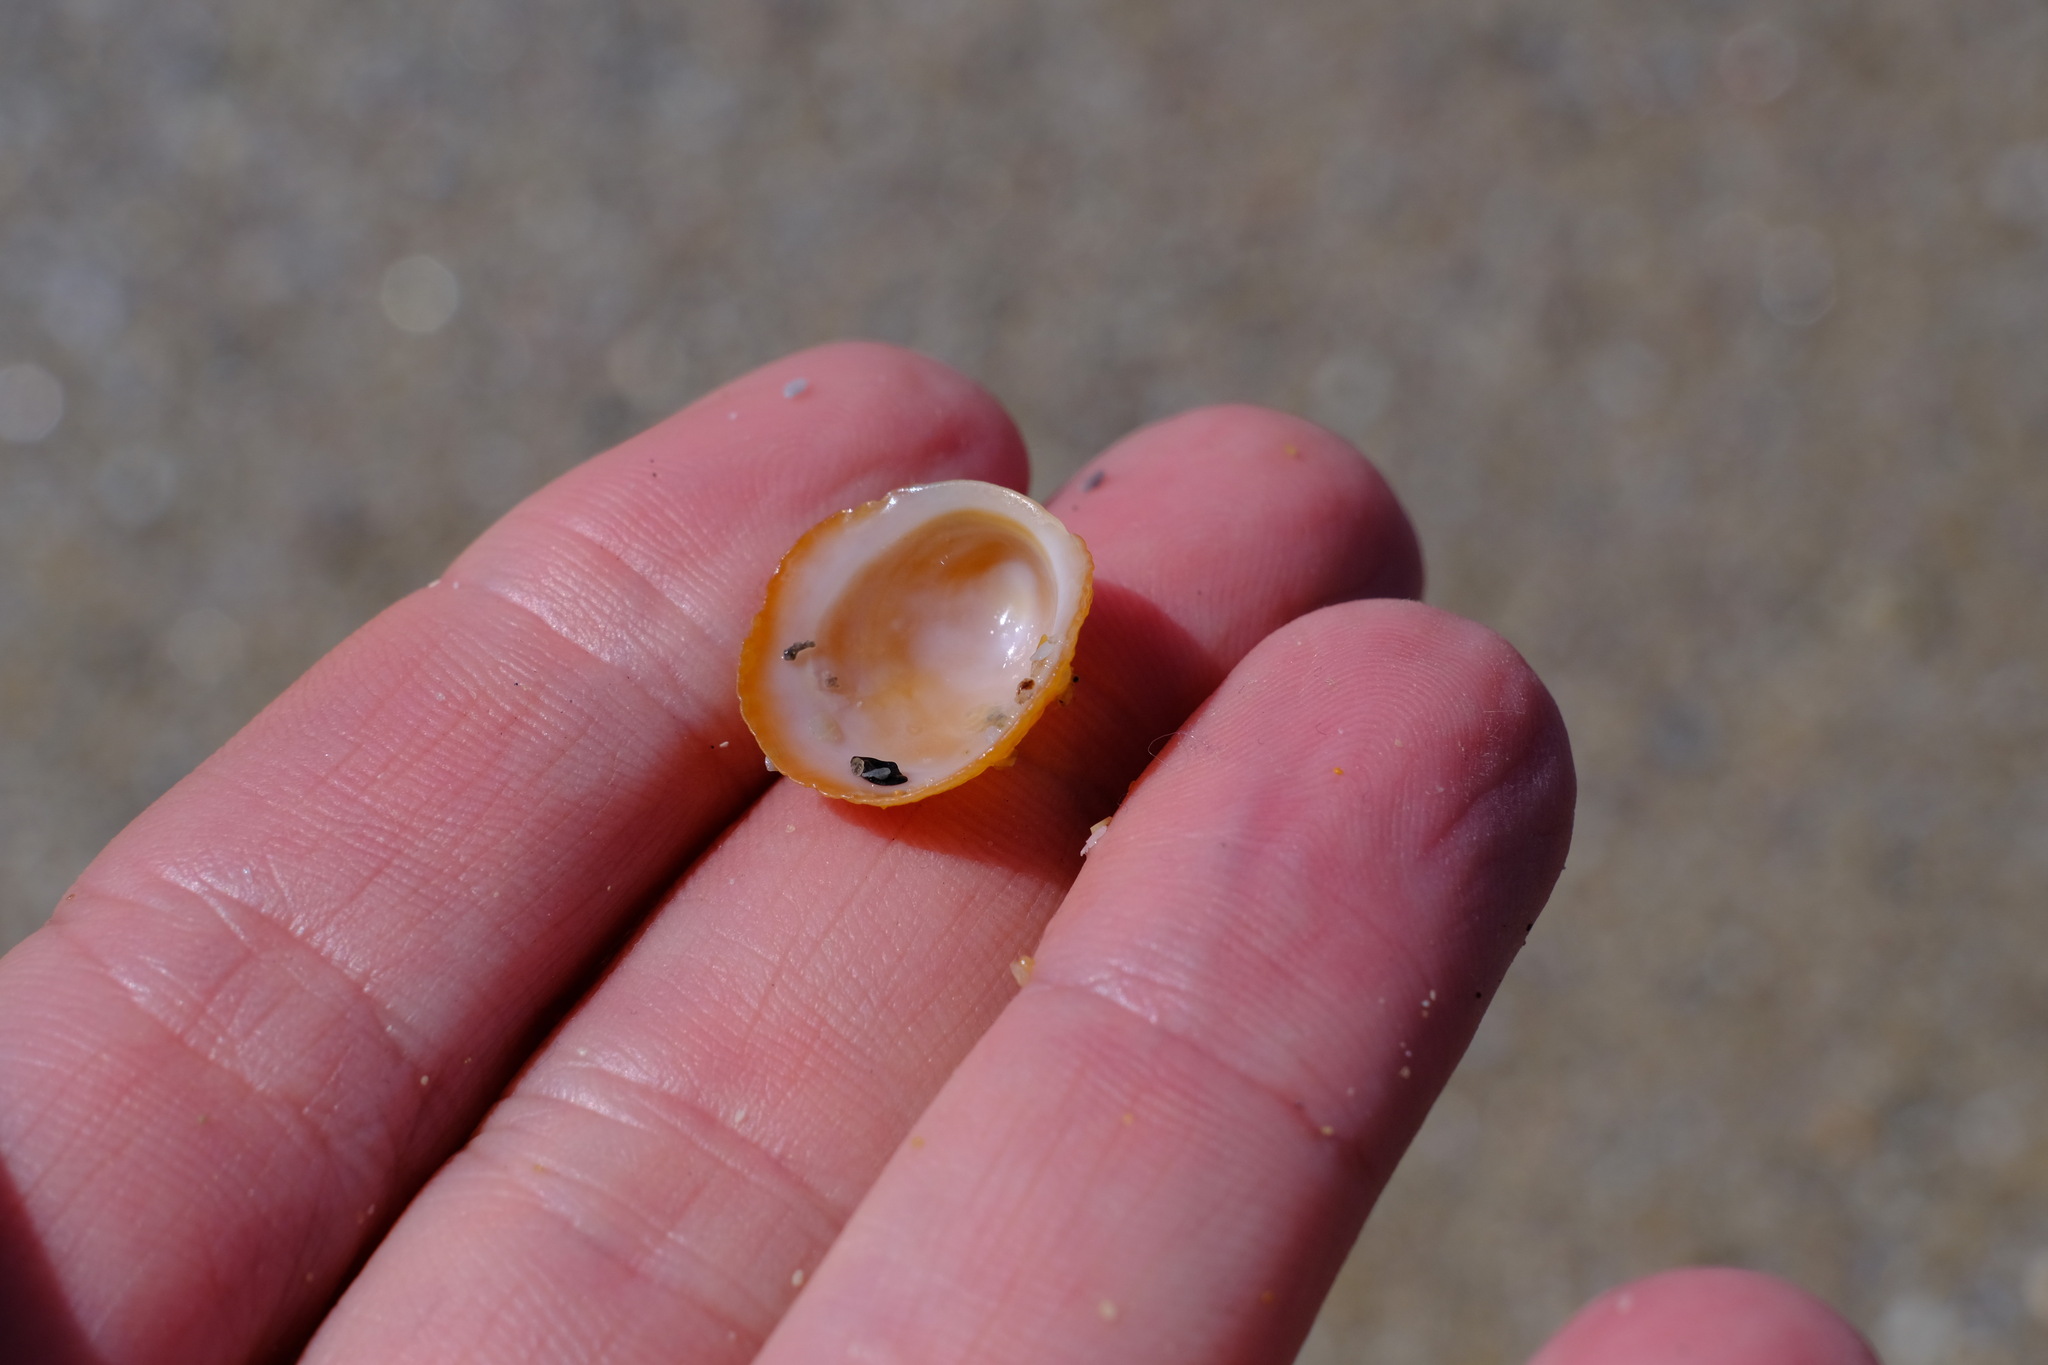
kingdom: Animalia
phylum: Mollusca
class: Gastropoda
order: Littorinimorpha
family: Hipponicidae
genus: Sabia
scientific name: Sabia australis
